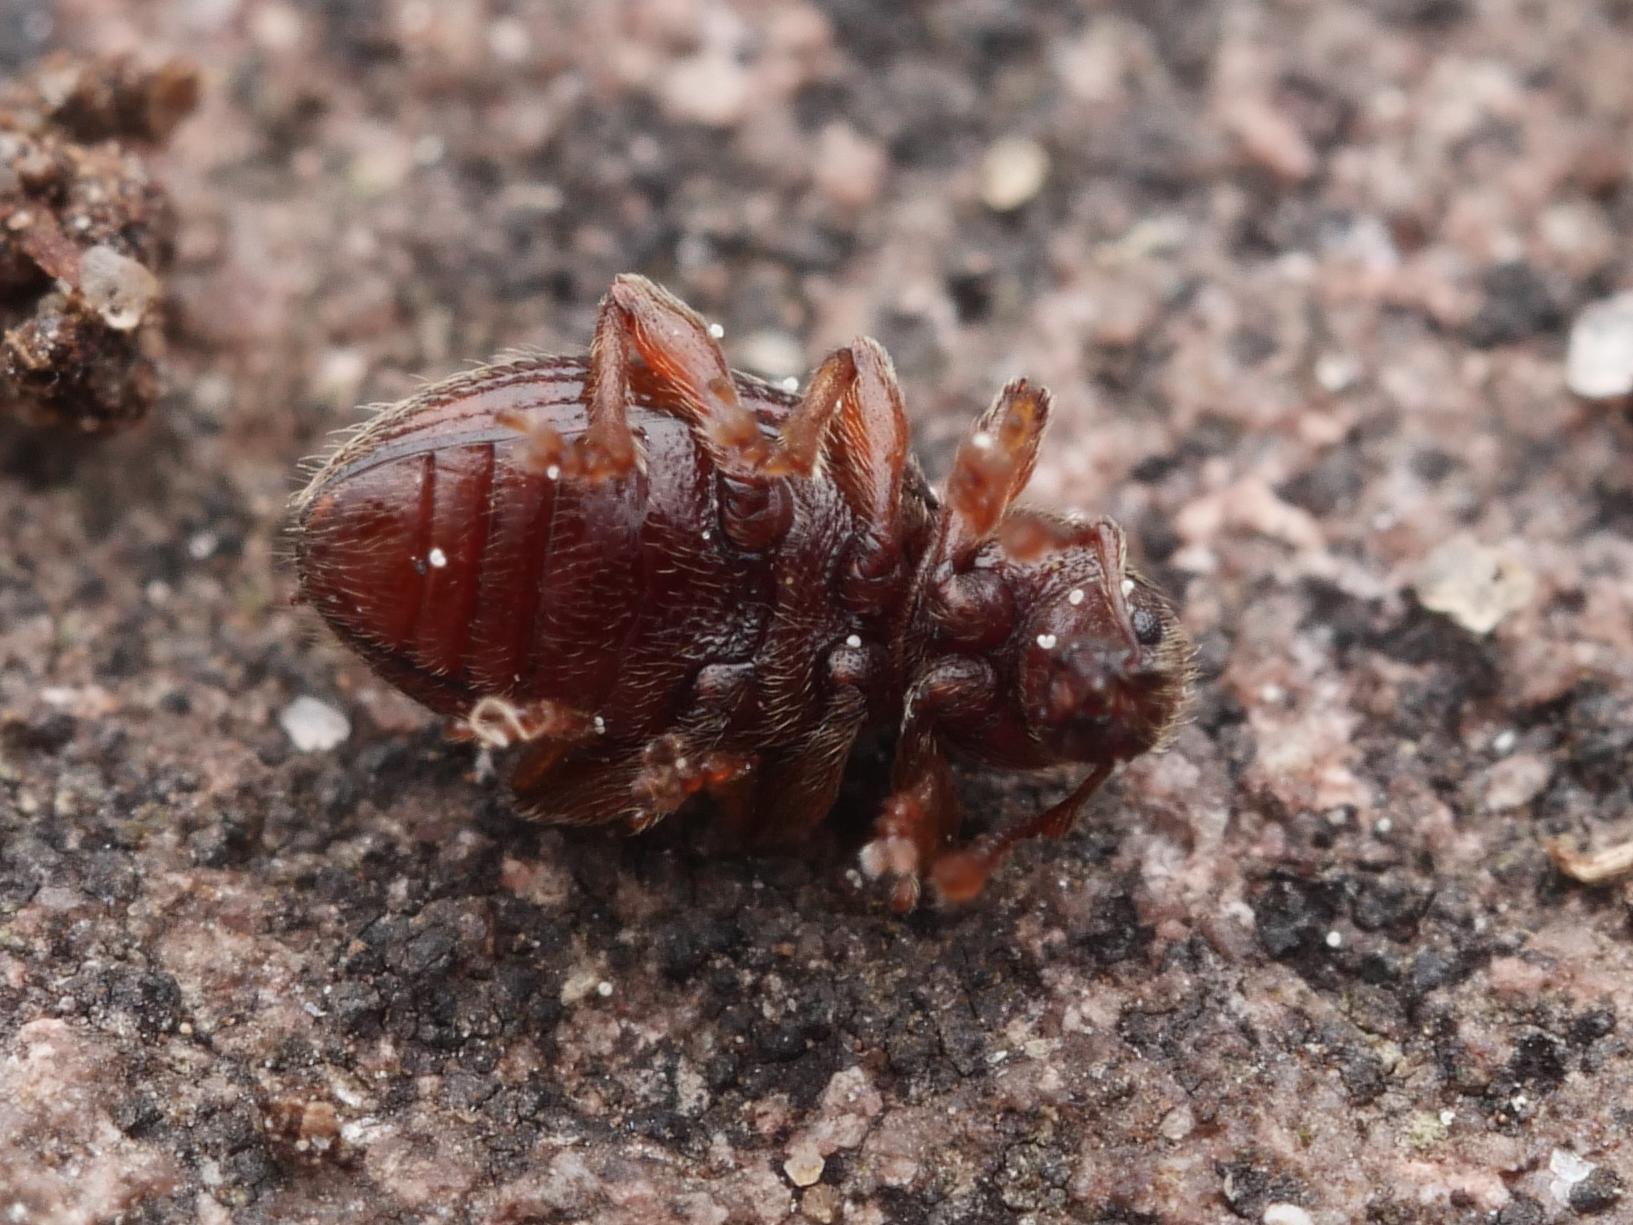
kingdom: Animalia
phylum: Arthropoda
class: Insecta
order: Coleoptera
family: Curculionidae
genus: Exomias
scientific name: Exomias pellucidus
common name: Hairy spider weevil
